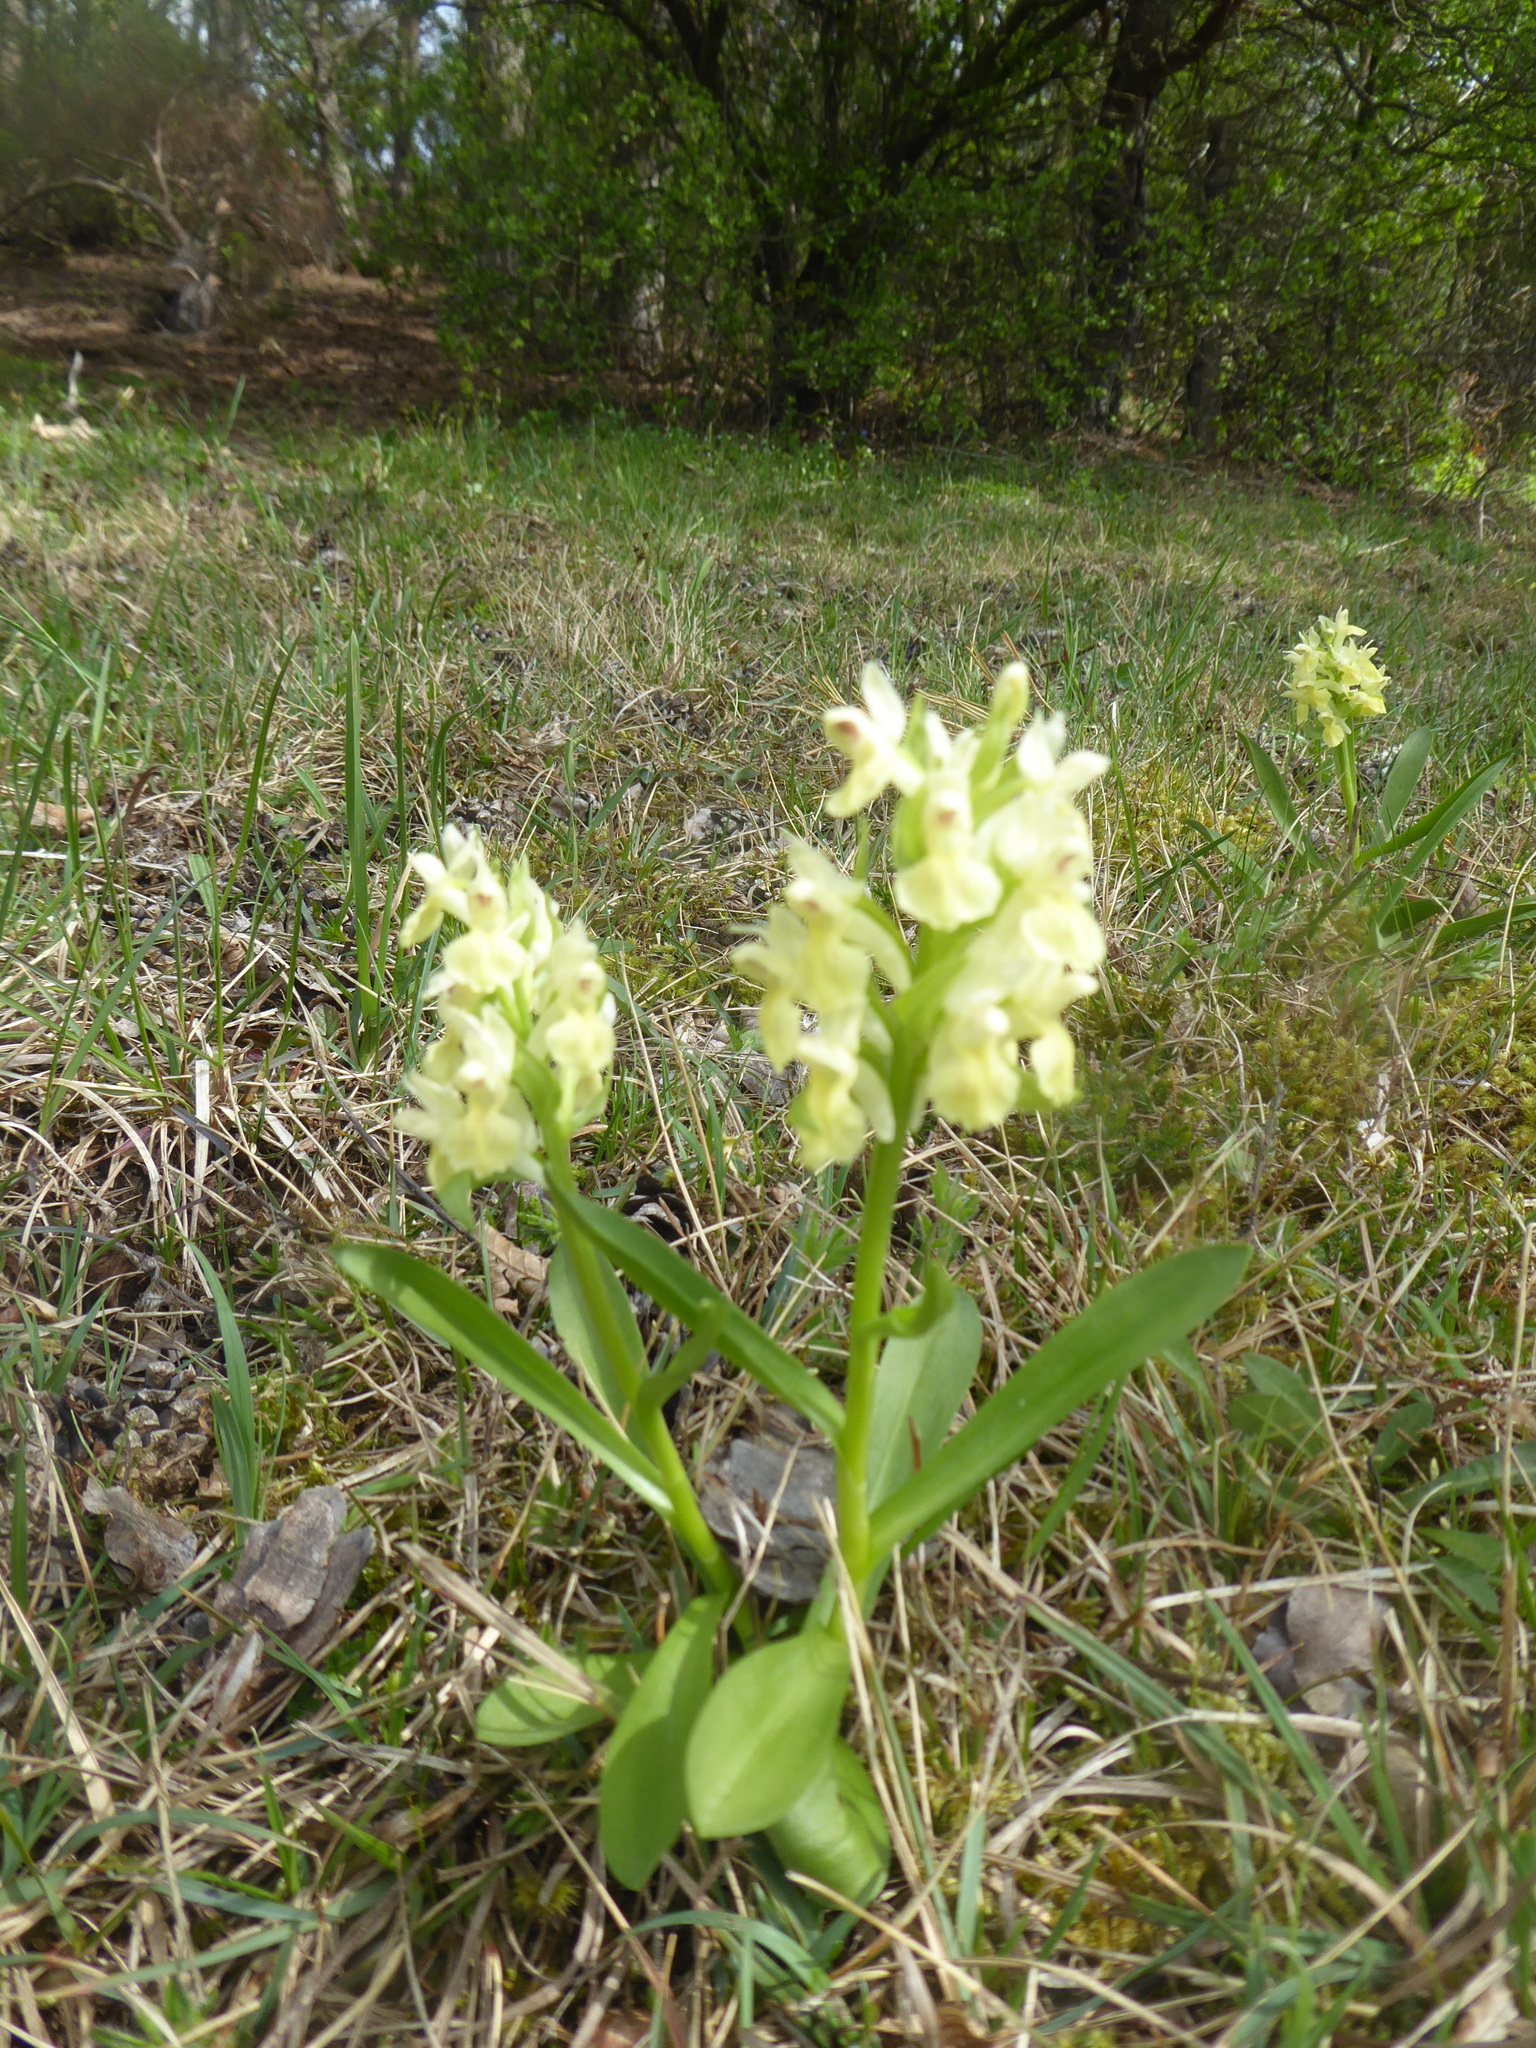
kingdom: Plantae
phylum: Tracheophyta
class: Liliopsida
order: Asparagales
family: Orchidaceae
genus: Dactylorhiza
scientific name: Dactylorhiza sambucina
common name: Elder-flowered orchid
